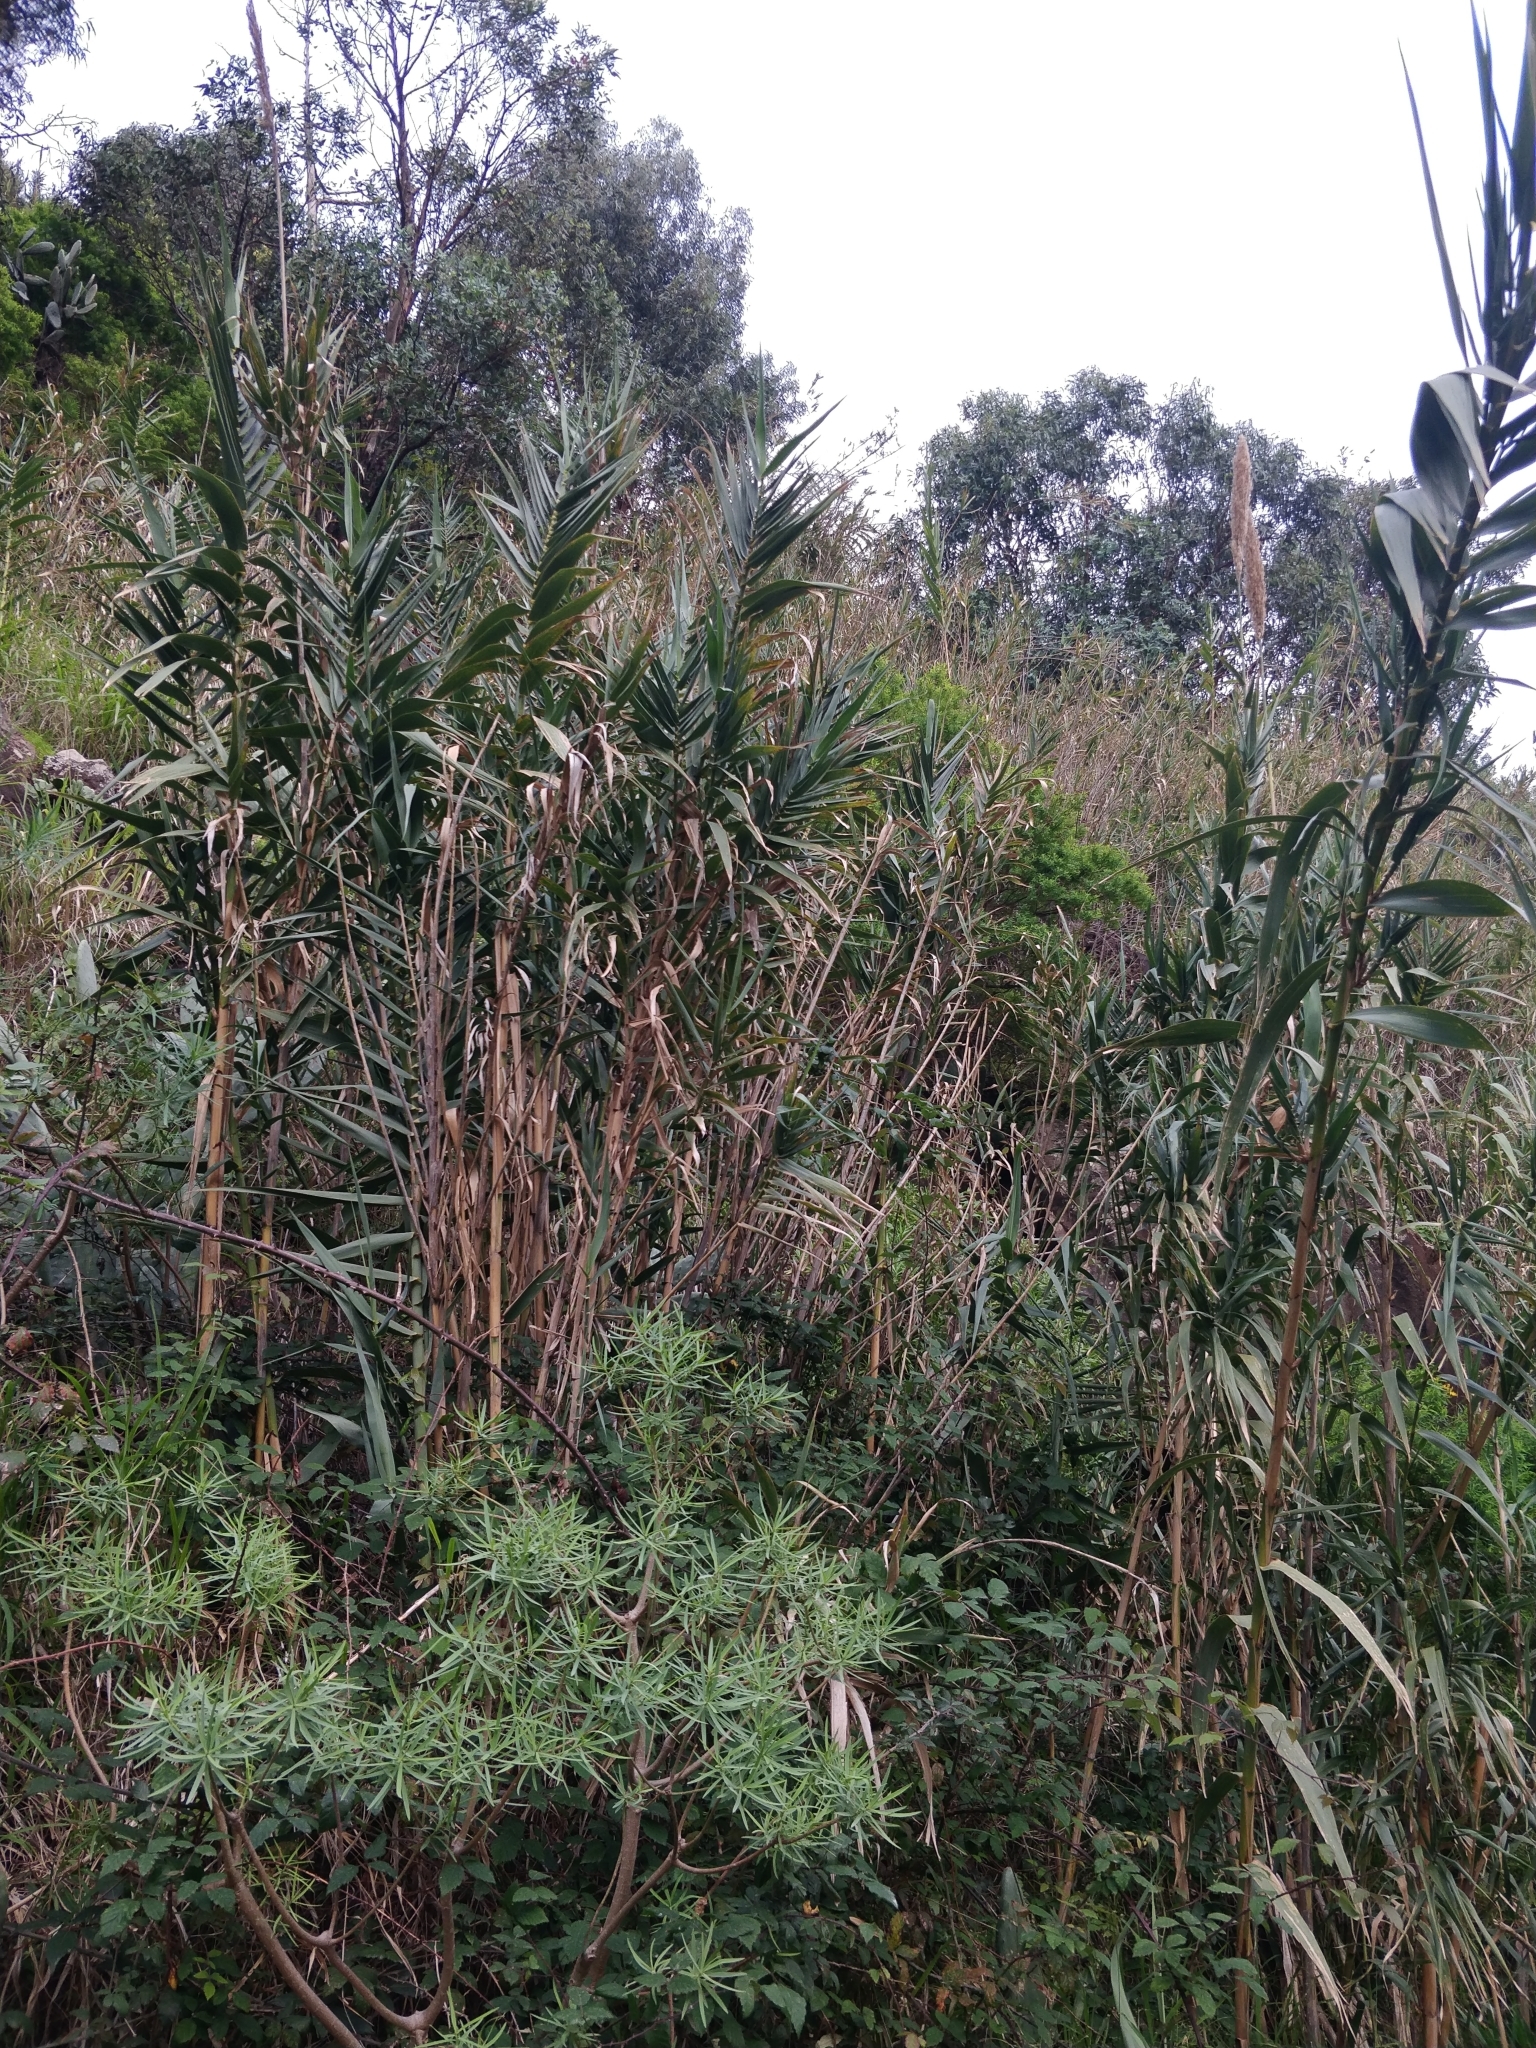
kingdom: Plantae
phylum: Tracheophyta
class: Magnoliopsida
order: Malpighiales
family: Euphorbiaceae
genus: Euphorbia
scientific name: Euphorbia piscatoria
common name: Fish-stunning spurge
